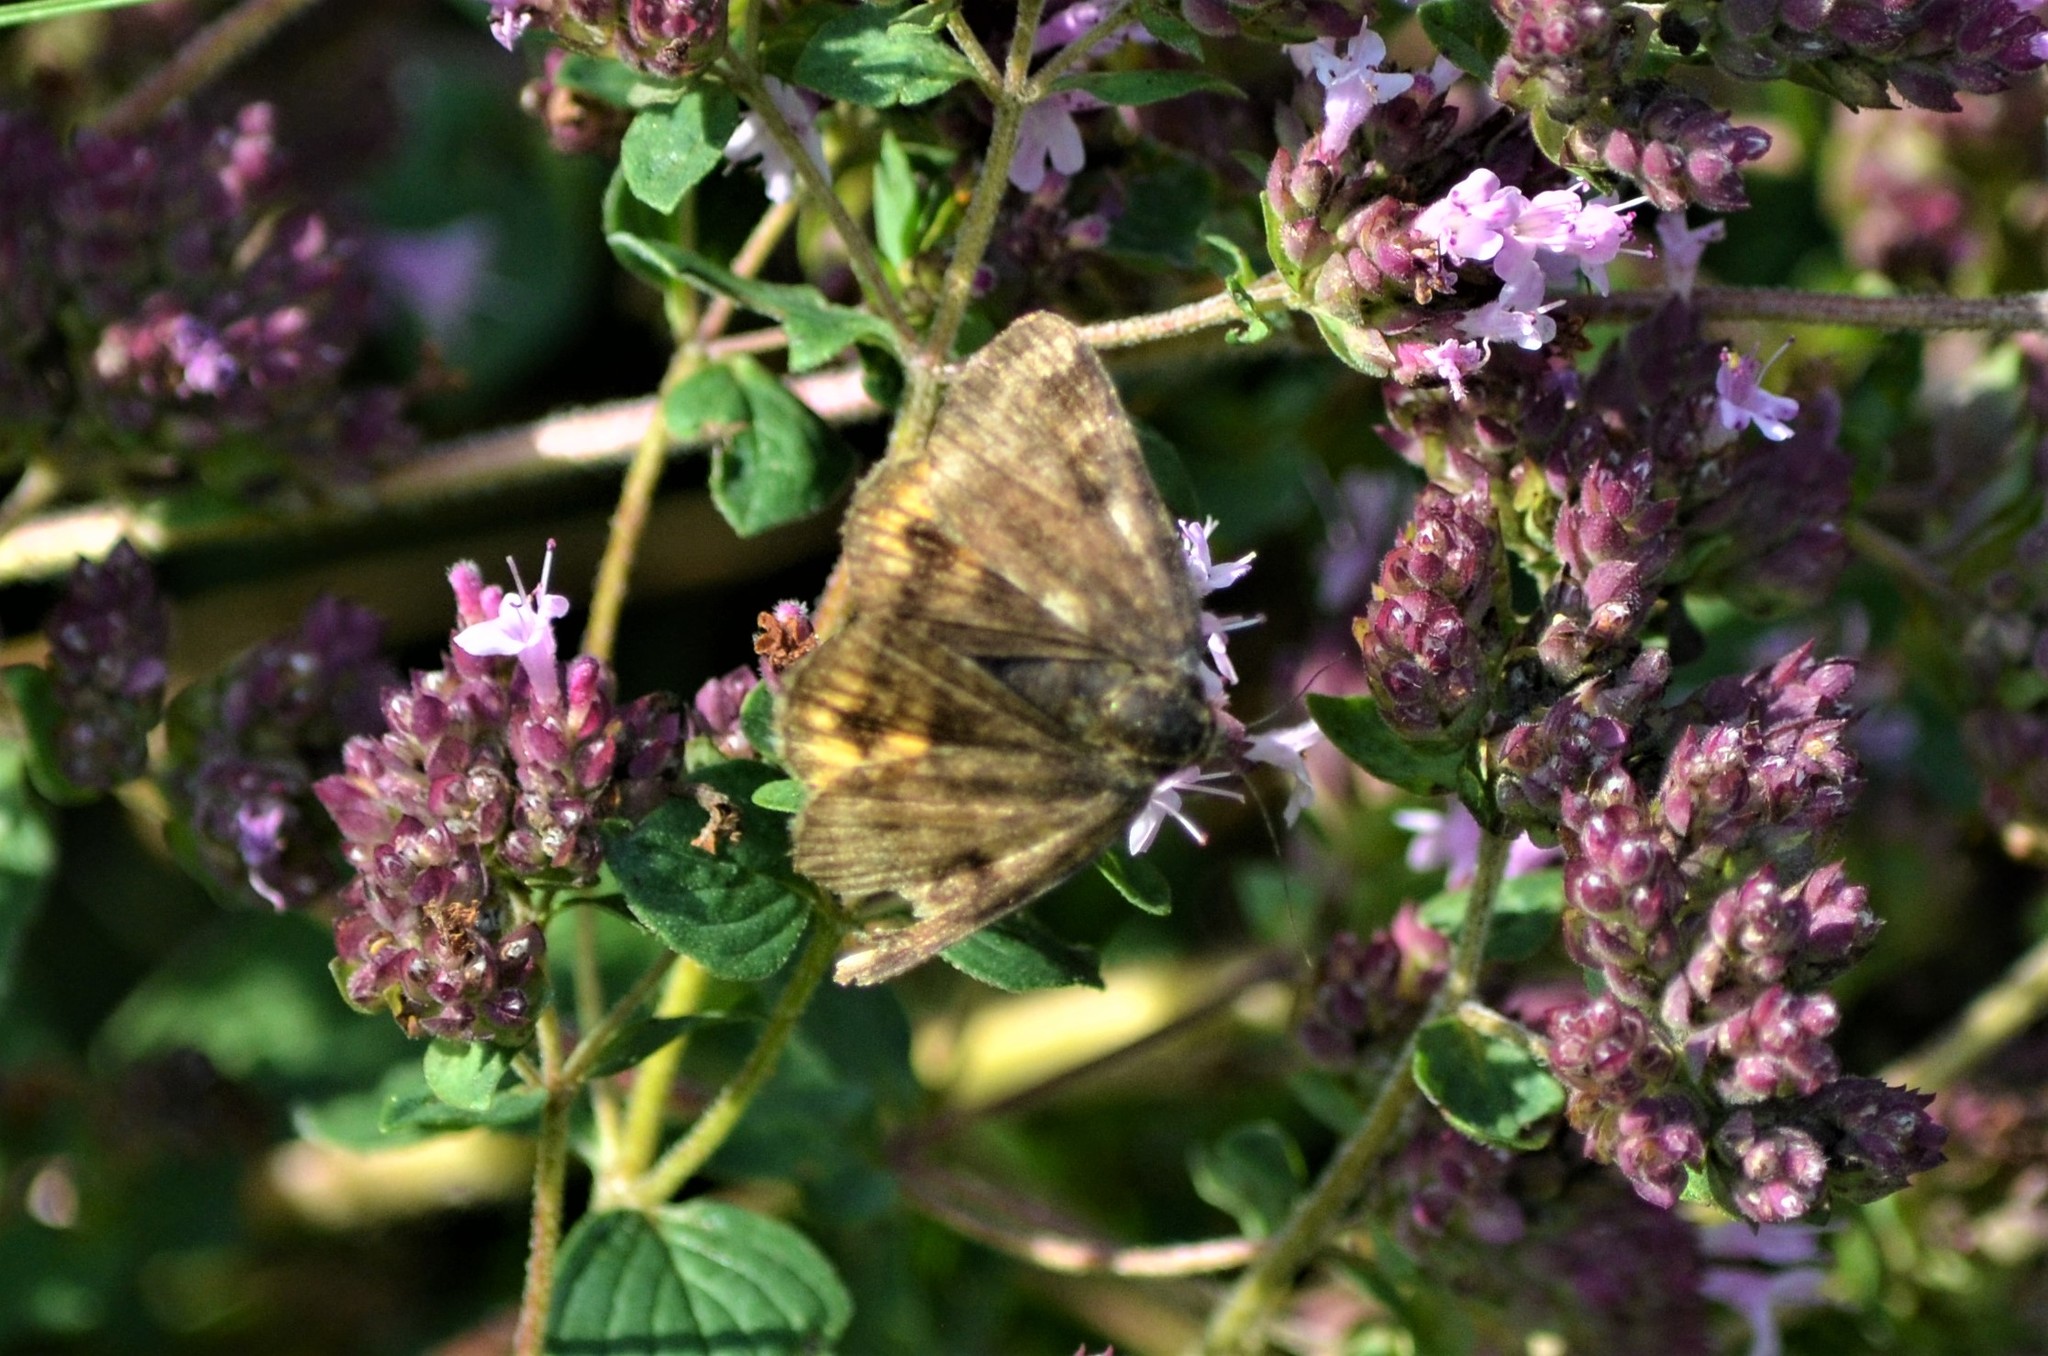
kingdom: Animalia
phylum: Arthropoda
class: Insecta
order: Lepidoptera
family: Erebidae
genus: Euclidia
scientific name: Euclidia glyphica
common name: Burnet companion
